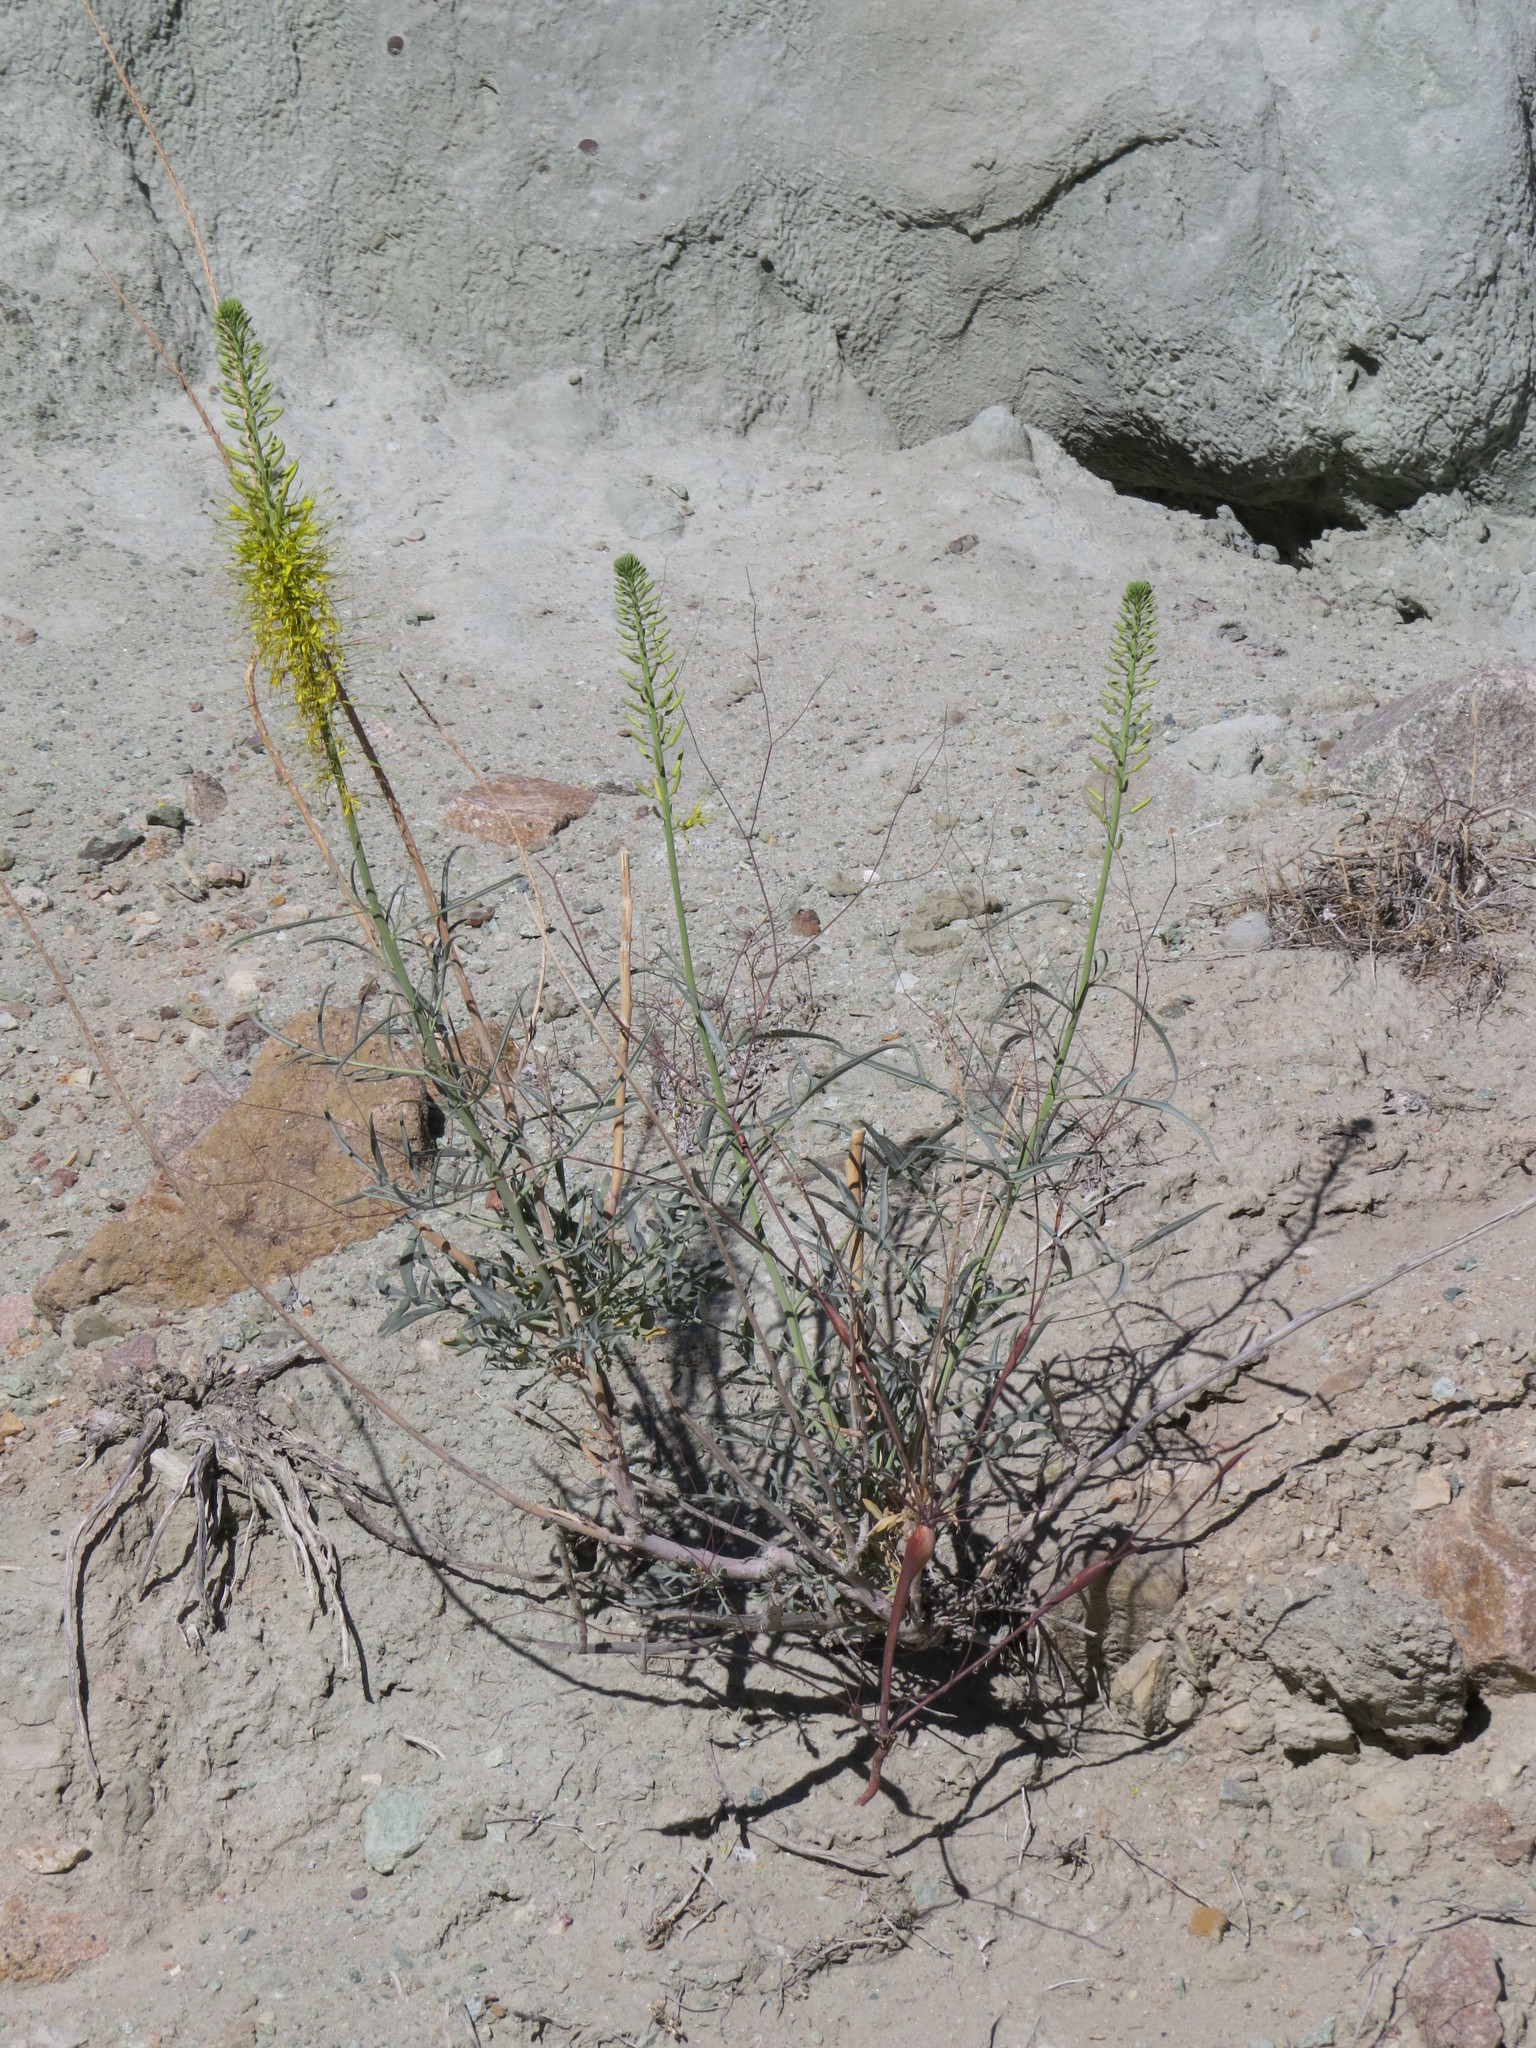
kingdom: Plantae
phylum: Tracheophyta
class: Magnoliopsida
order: Brassicales
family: Brassicaceae
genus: Stanleya
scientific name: Stanleya pinnata
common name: Prince's-plume
